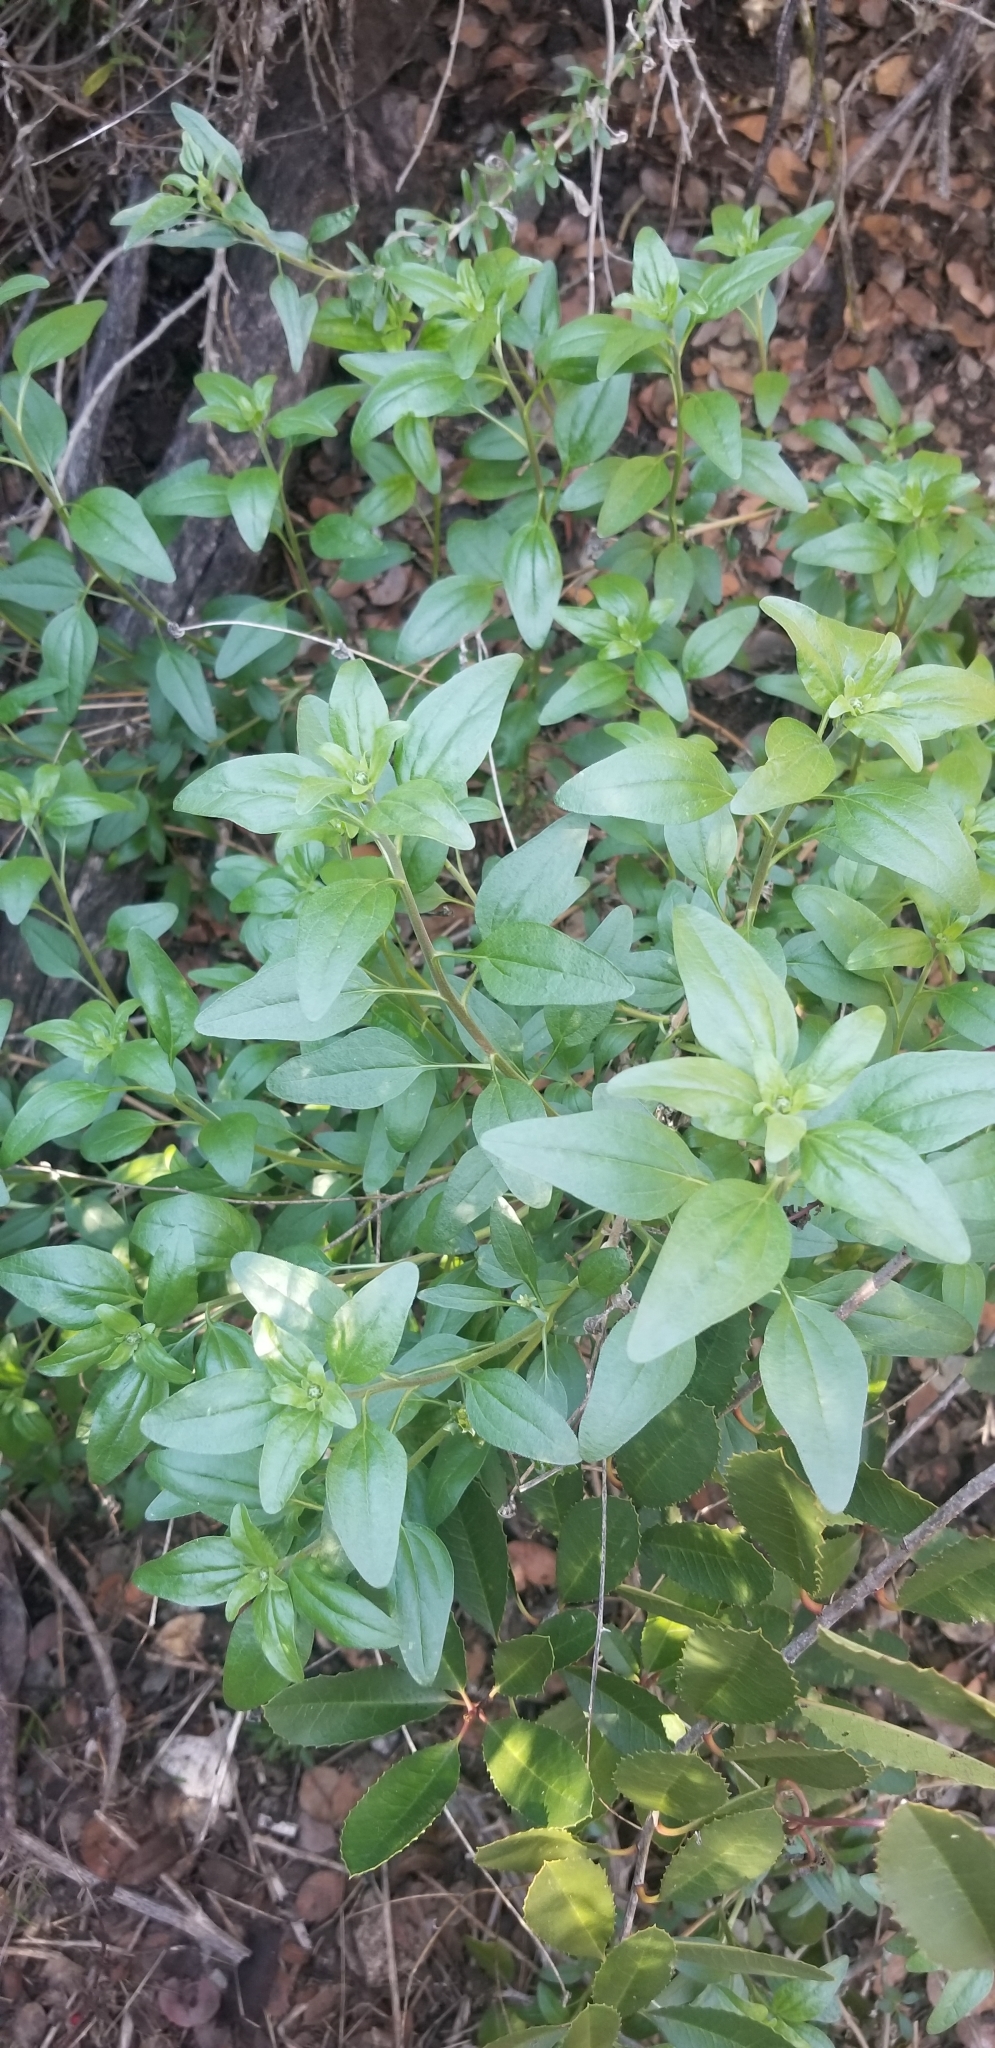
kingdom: Plantae
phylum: Tracheophyta
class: Magnoliopsida
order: Asterales
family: Asteraceae
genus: Encelia
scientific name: Encelia californica
